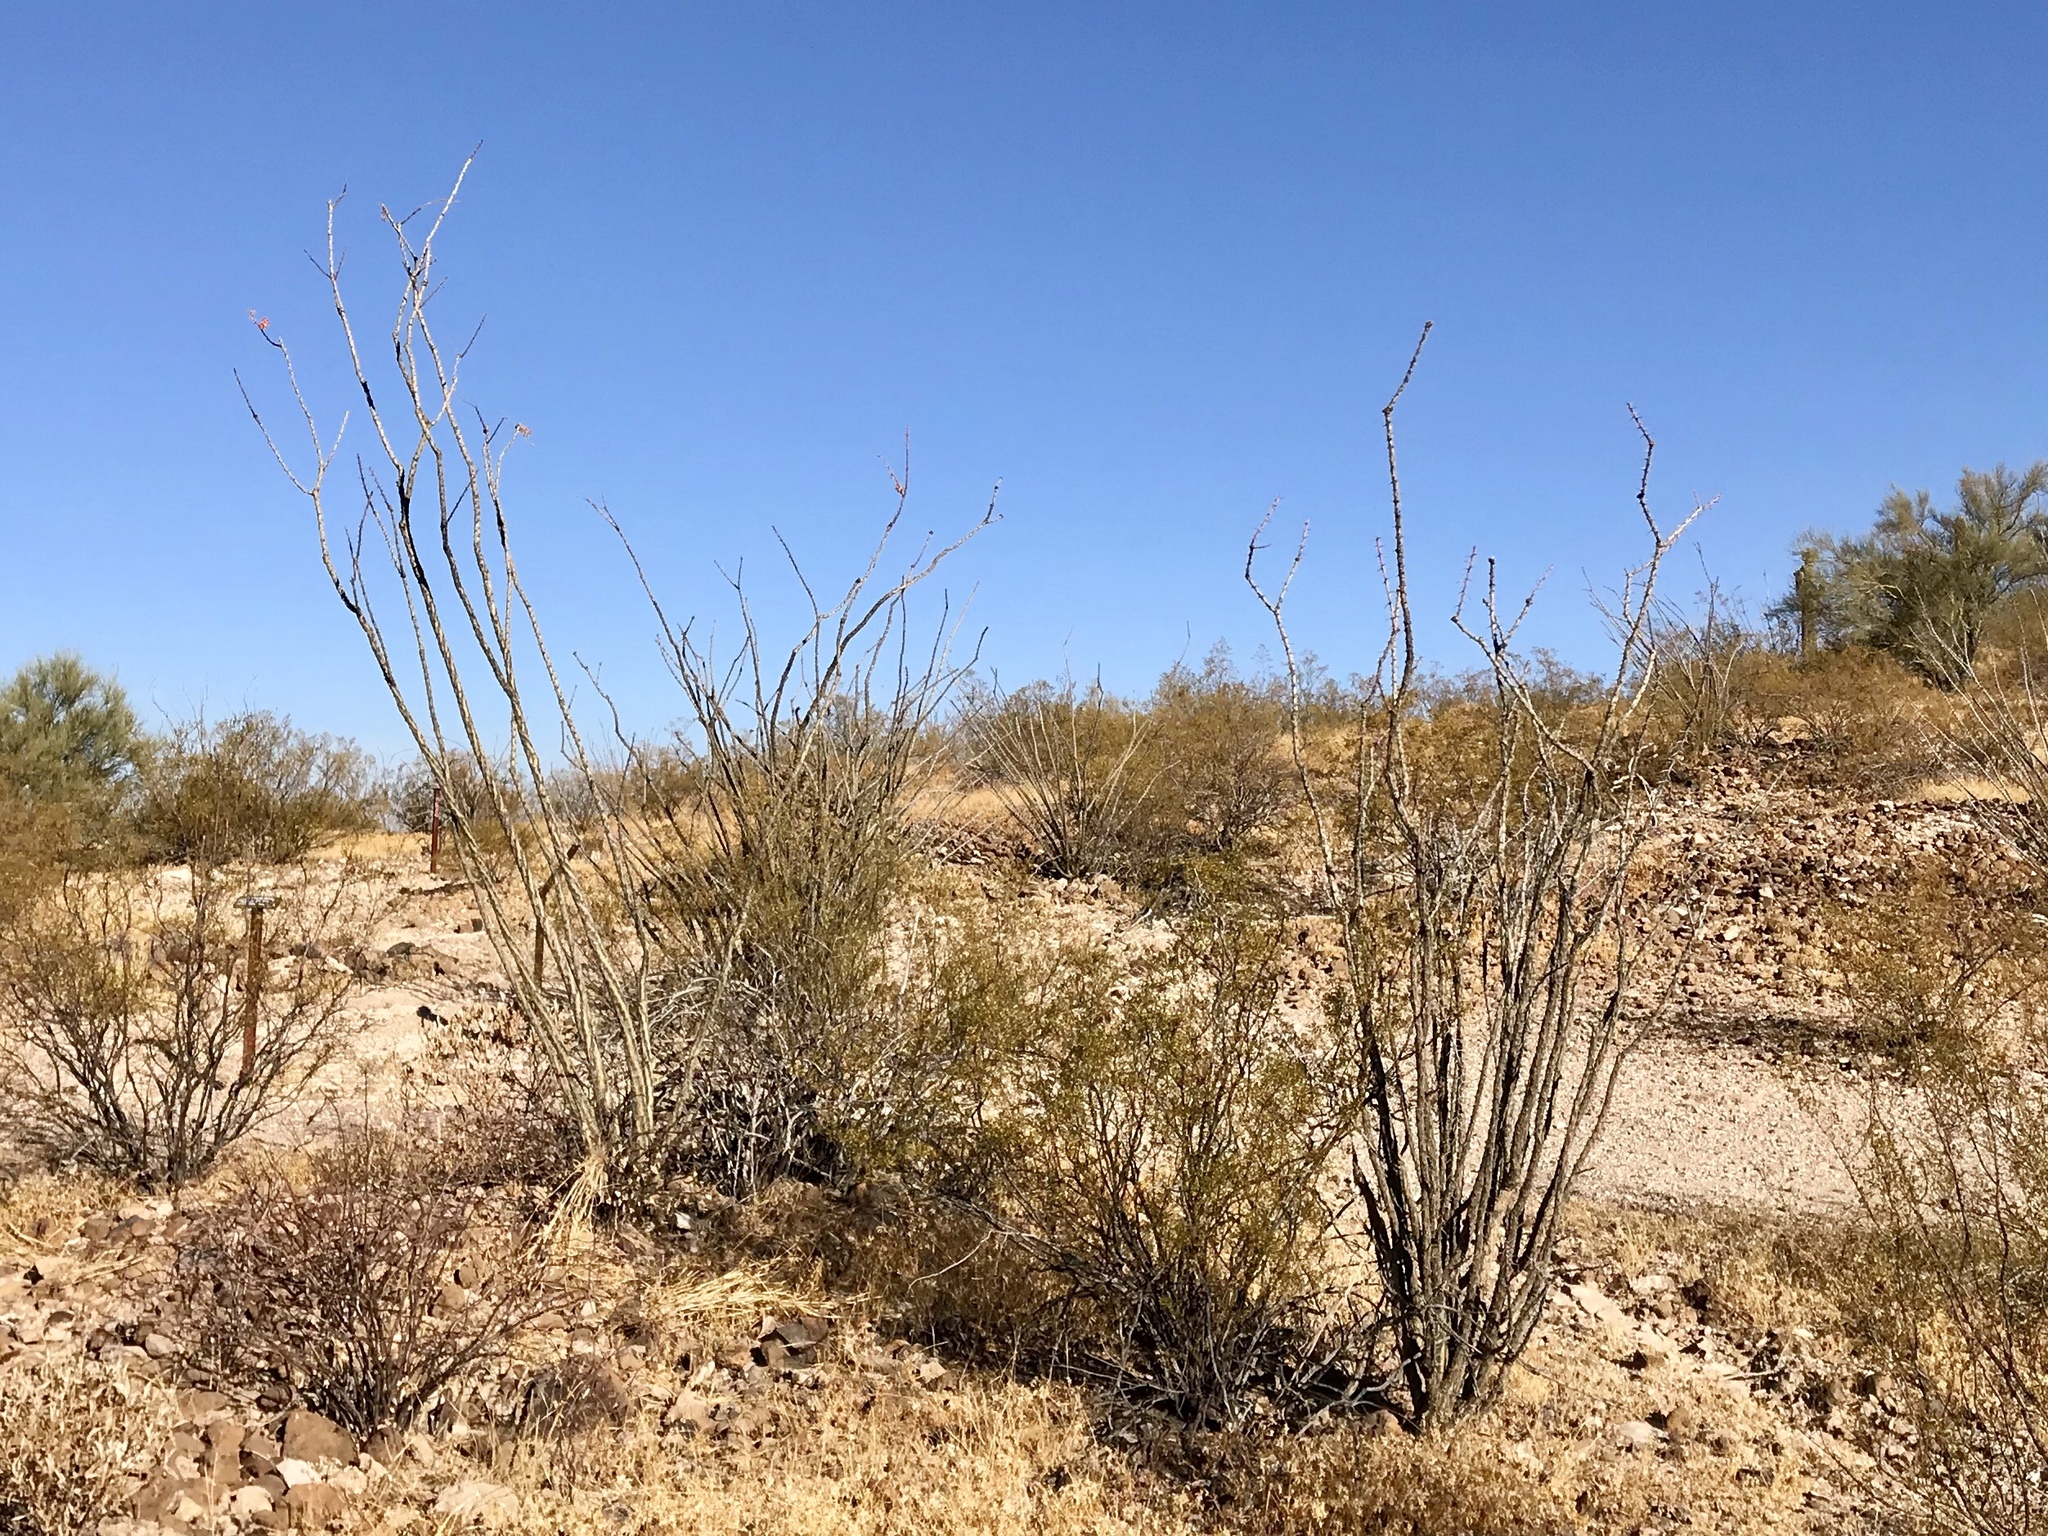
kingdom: Plantae
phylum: Tracheophyta
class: Magnoliopsida
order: Ericales
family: Fouquieriaceae
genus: Fouquieria
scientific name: Fouquieria splendens
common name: Vine-cactus
